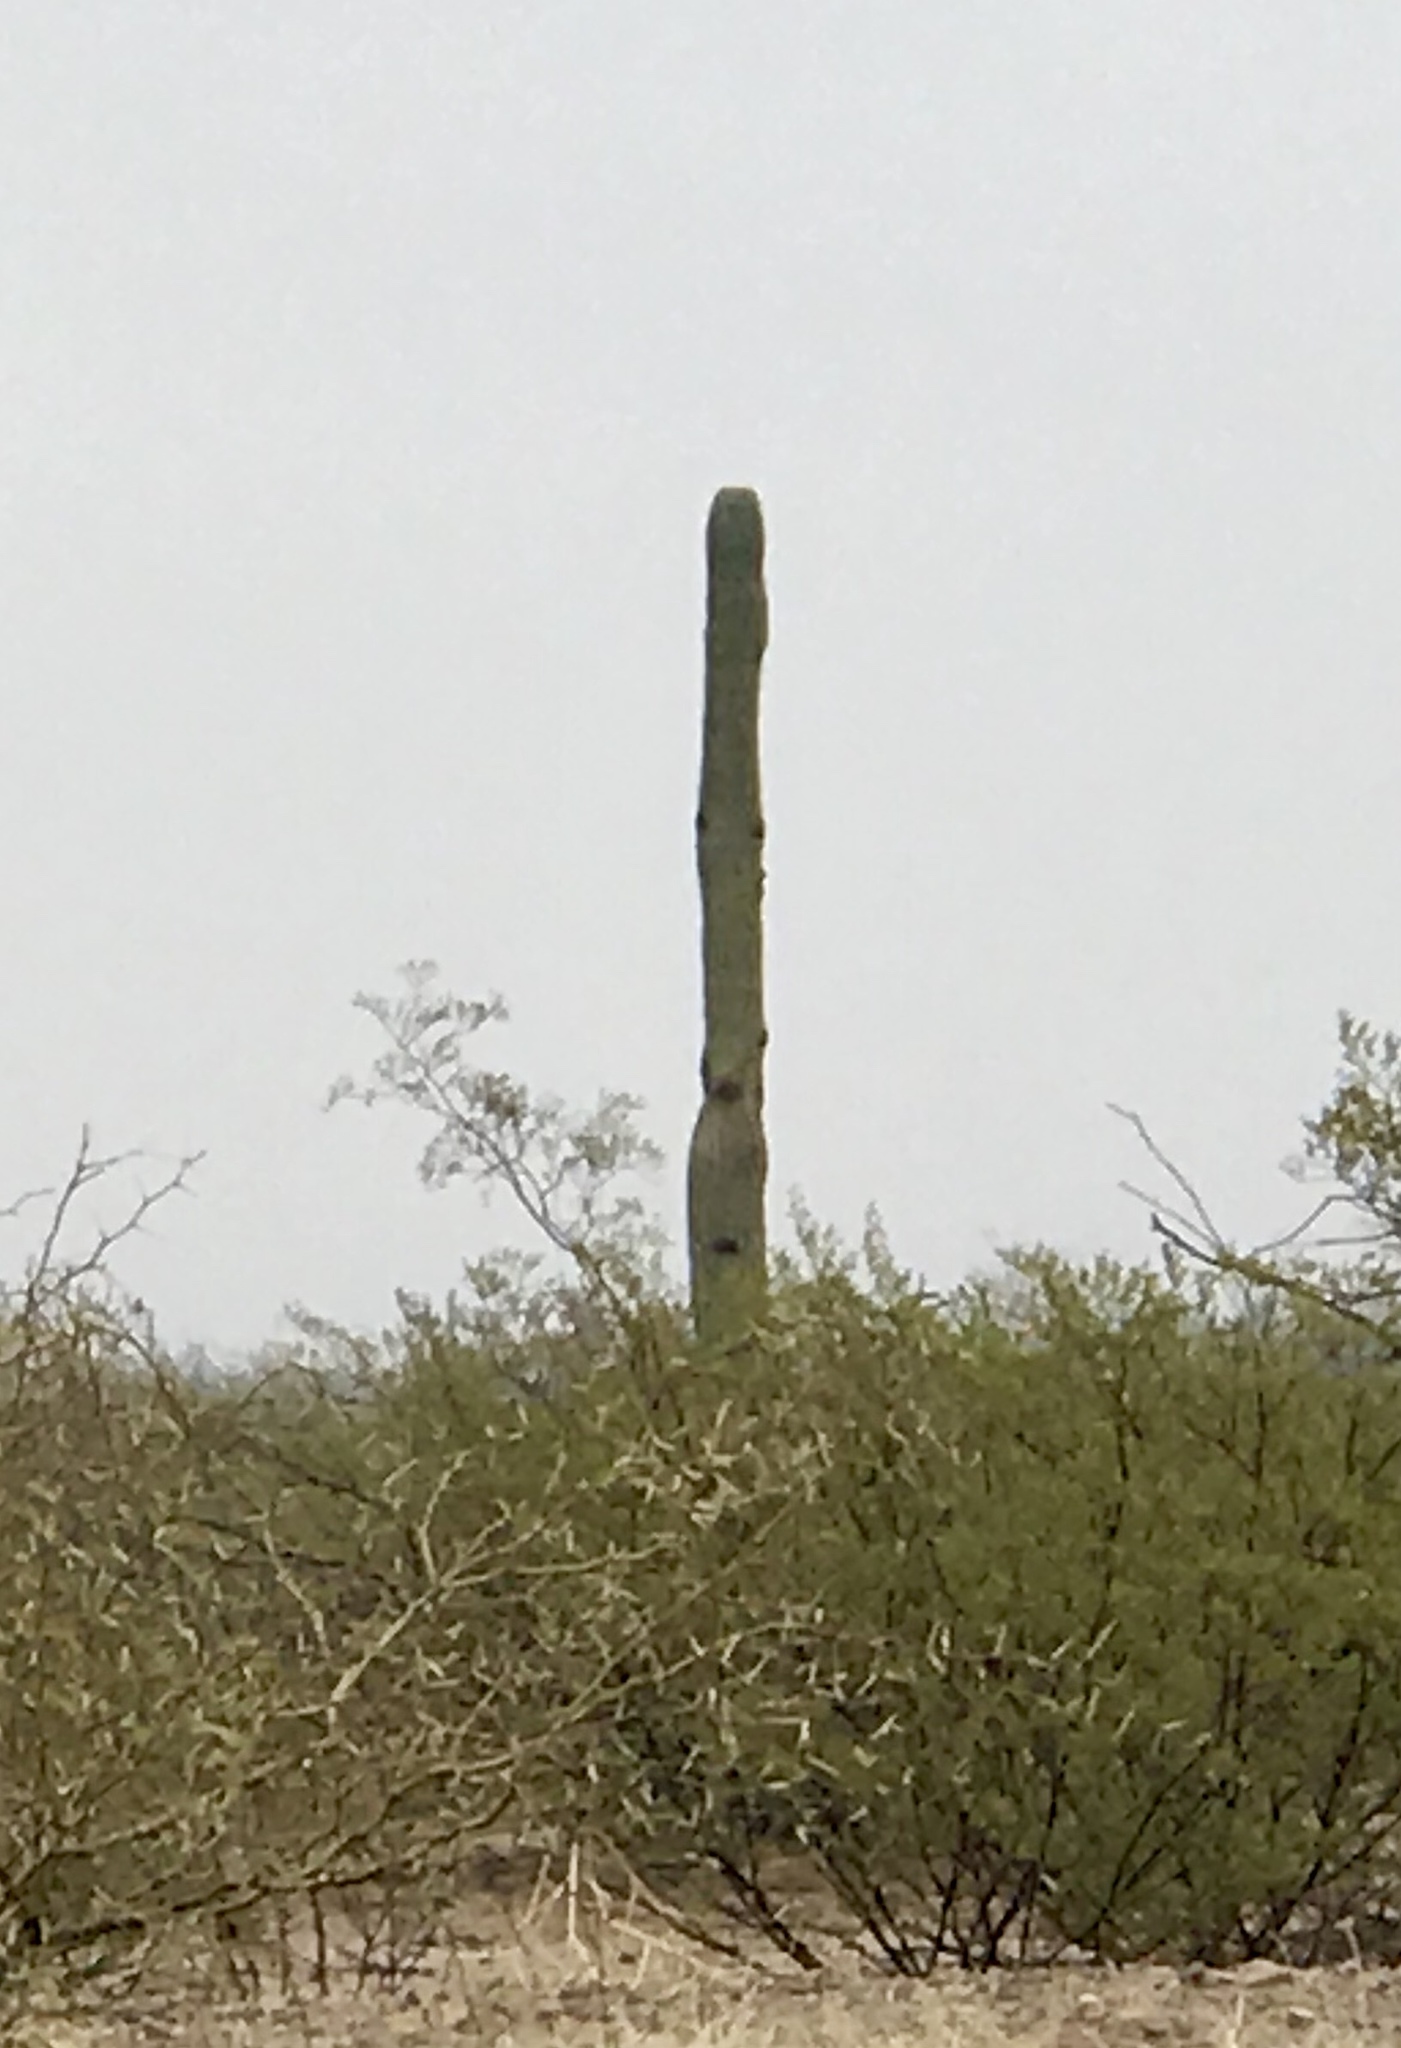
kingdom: Plantae
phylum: Tracheophyta
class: Magnoliopsida
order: Caryophyllales
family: Cactaceae
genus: Carnegiea
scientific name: Carnegiea gigantea
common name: Saguaro
